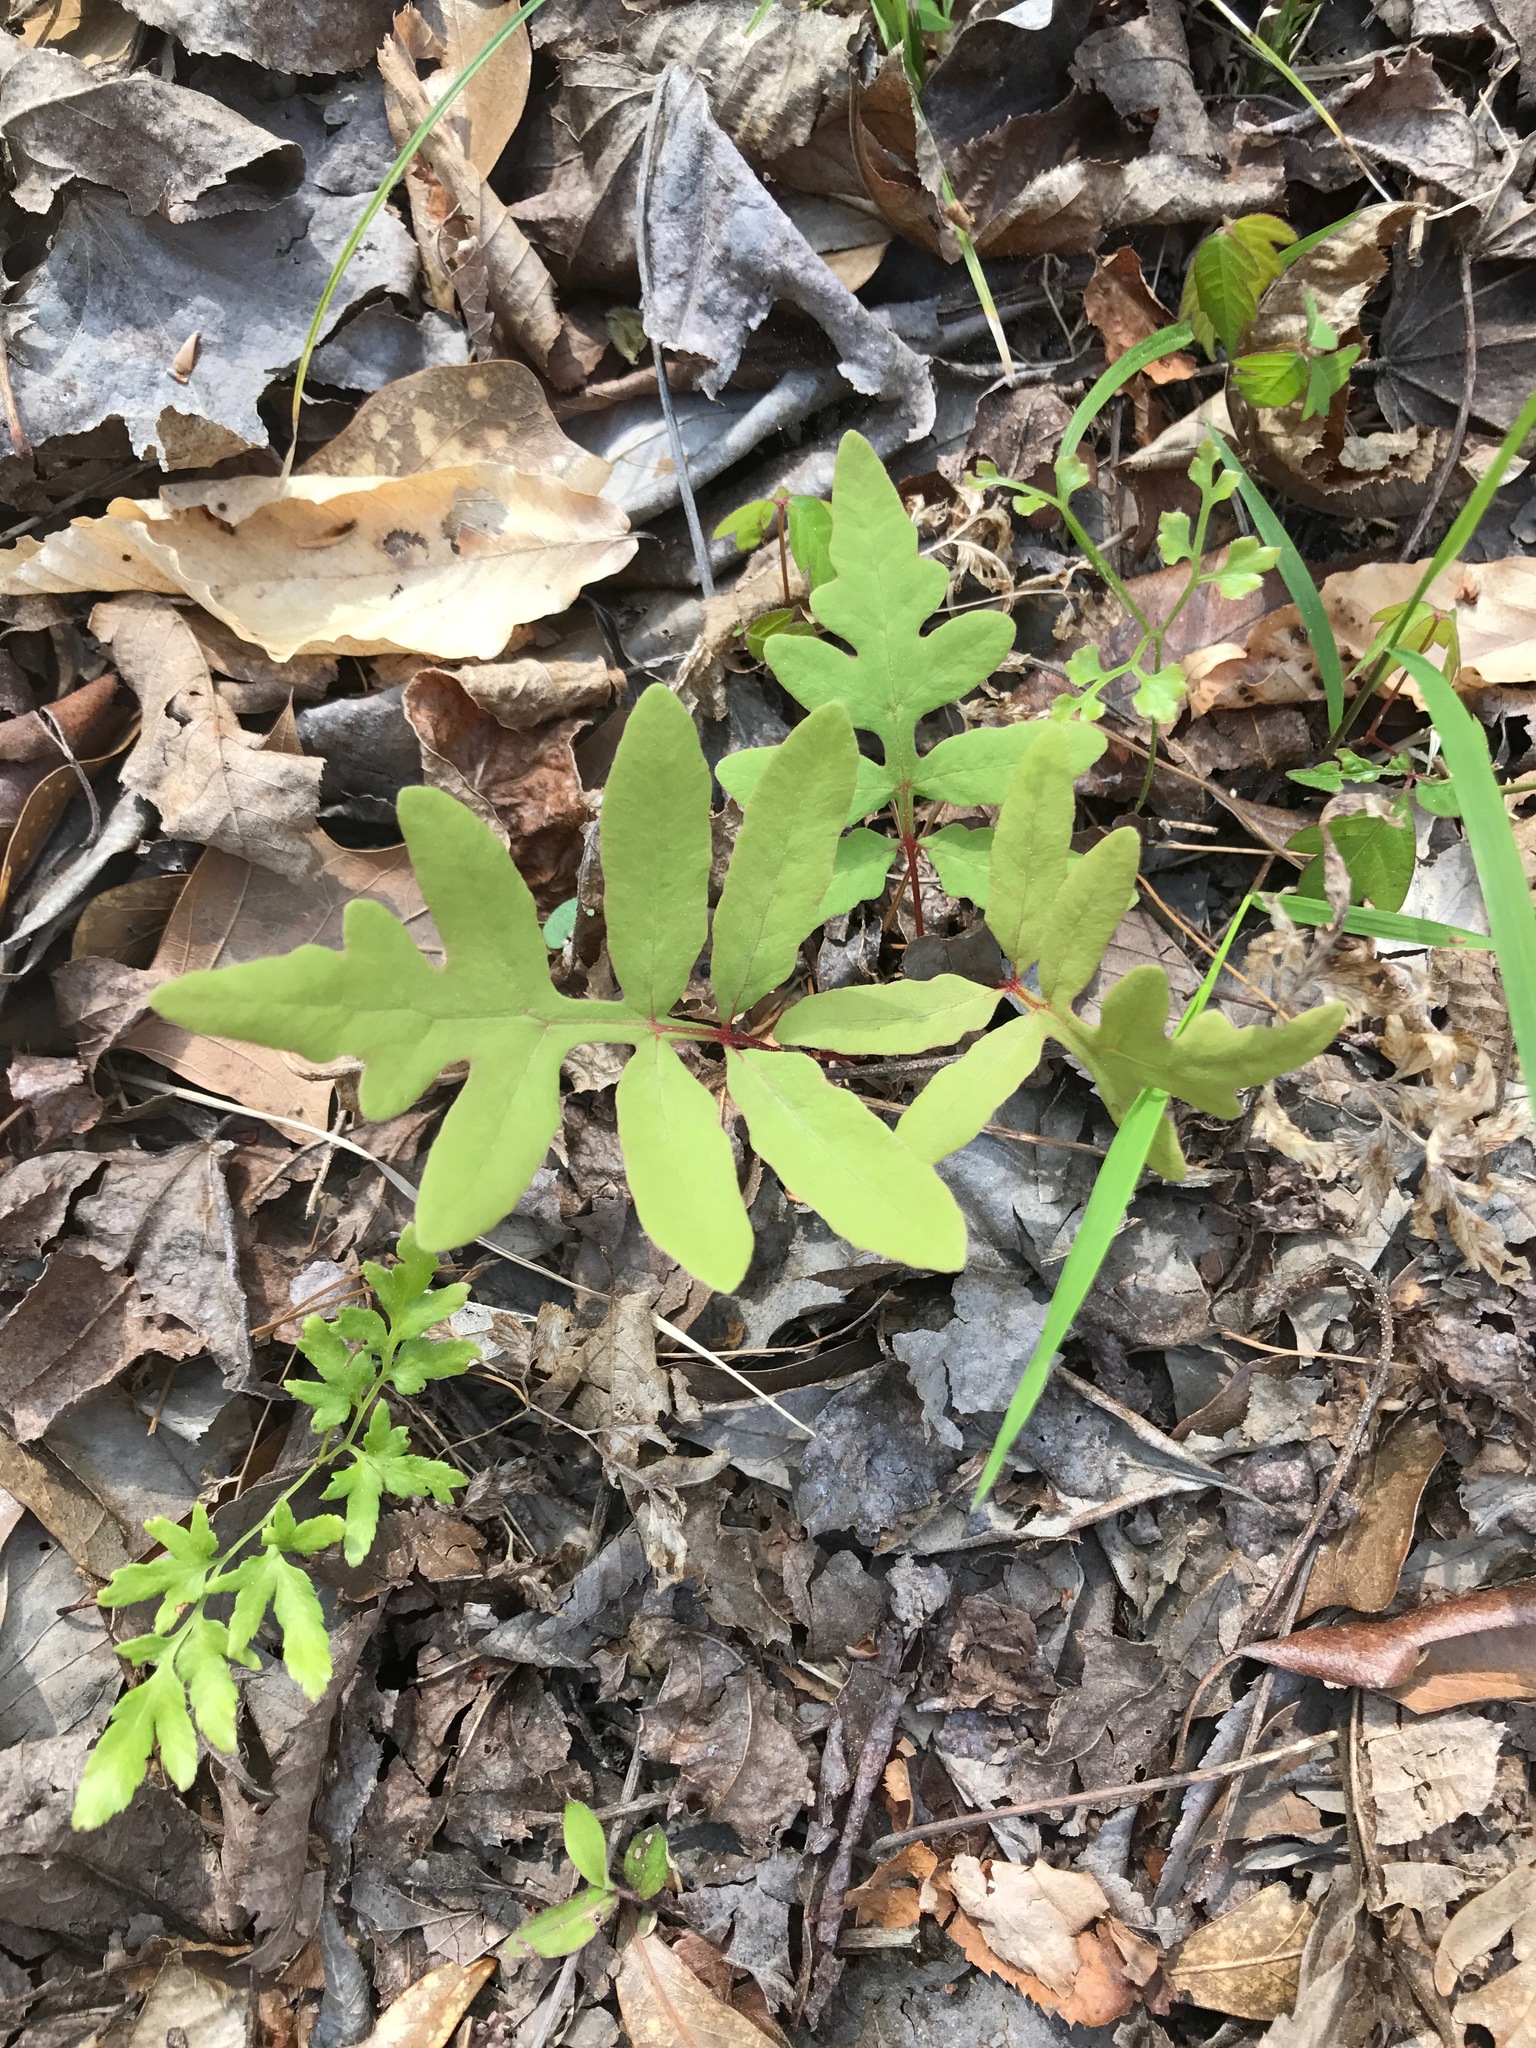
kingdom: Plantae
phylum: Tracheophyta
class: Polypodiopsida
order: Polypodiales
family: Onocleaceae
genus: Onoclea
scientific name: Onoclea sensibilis
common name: Sensitive fern
